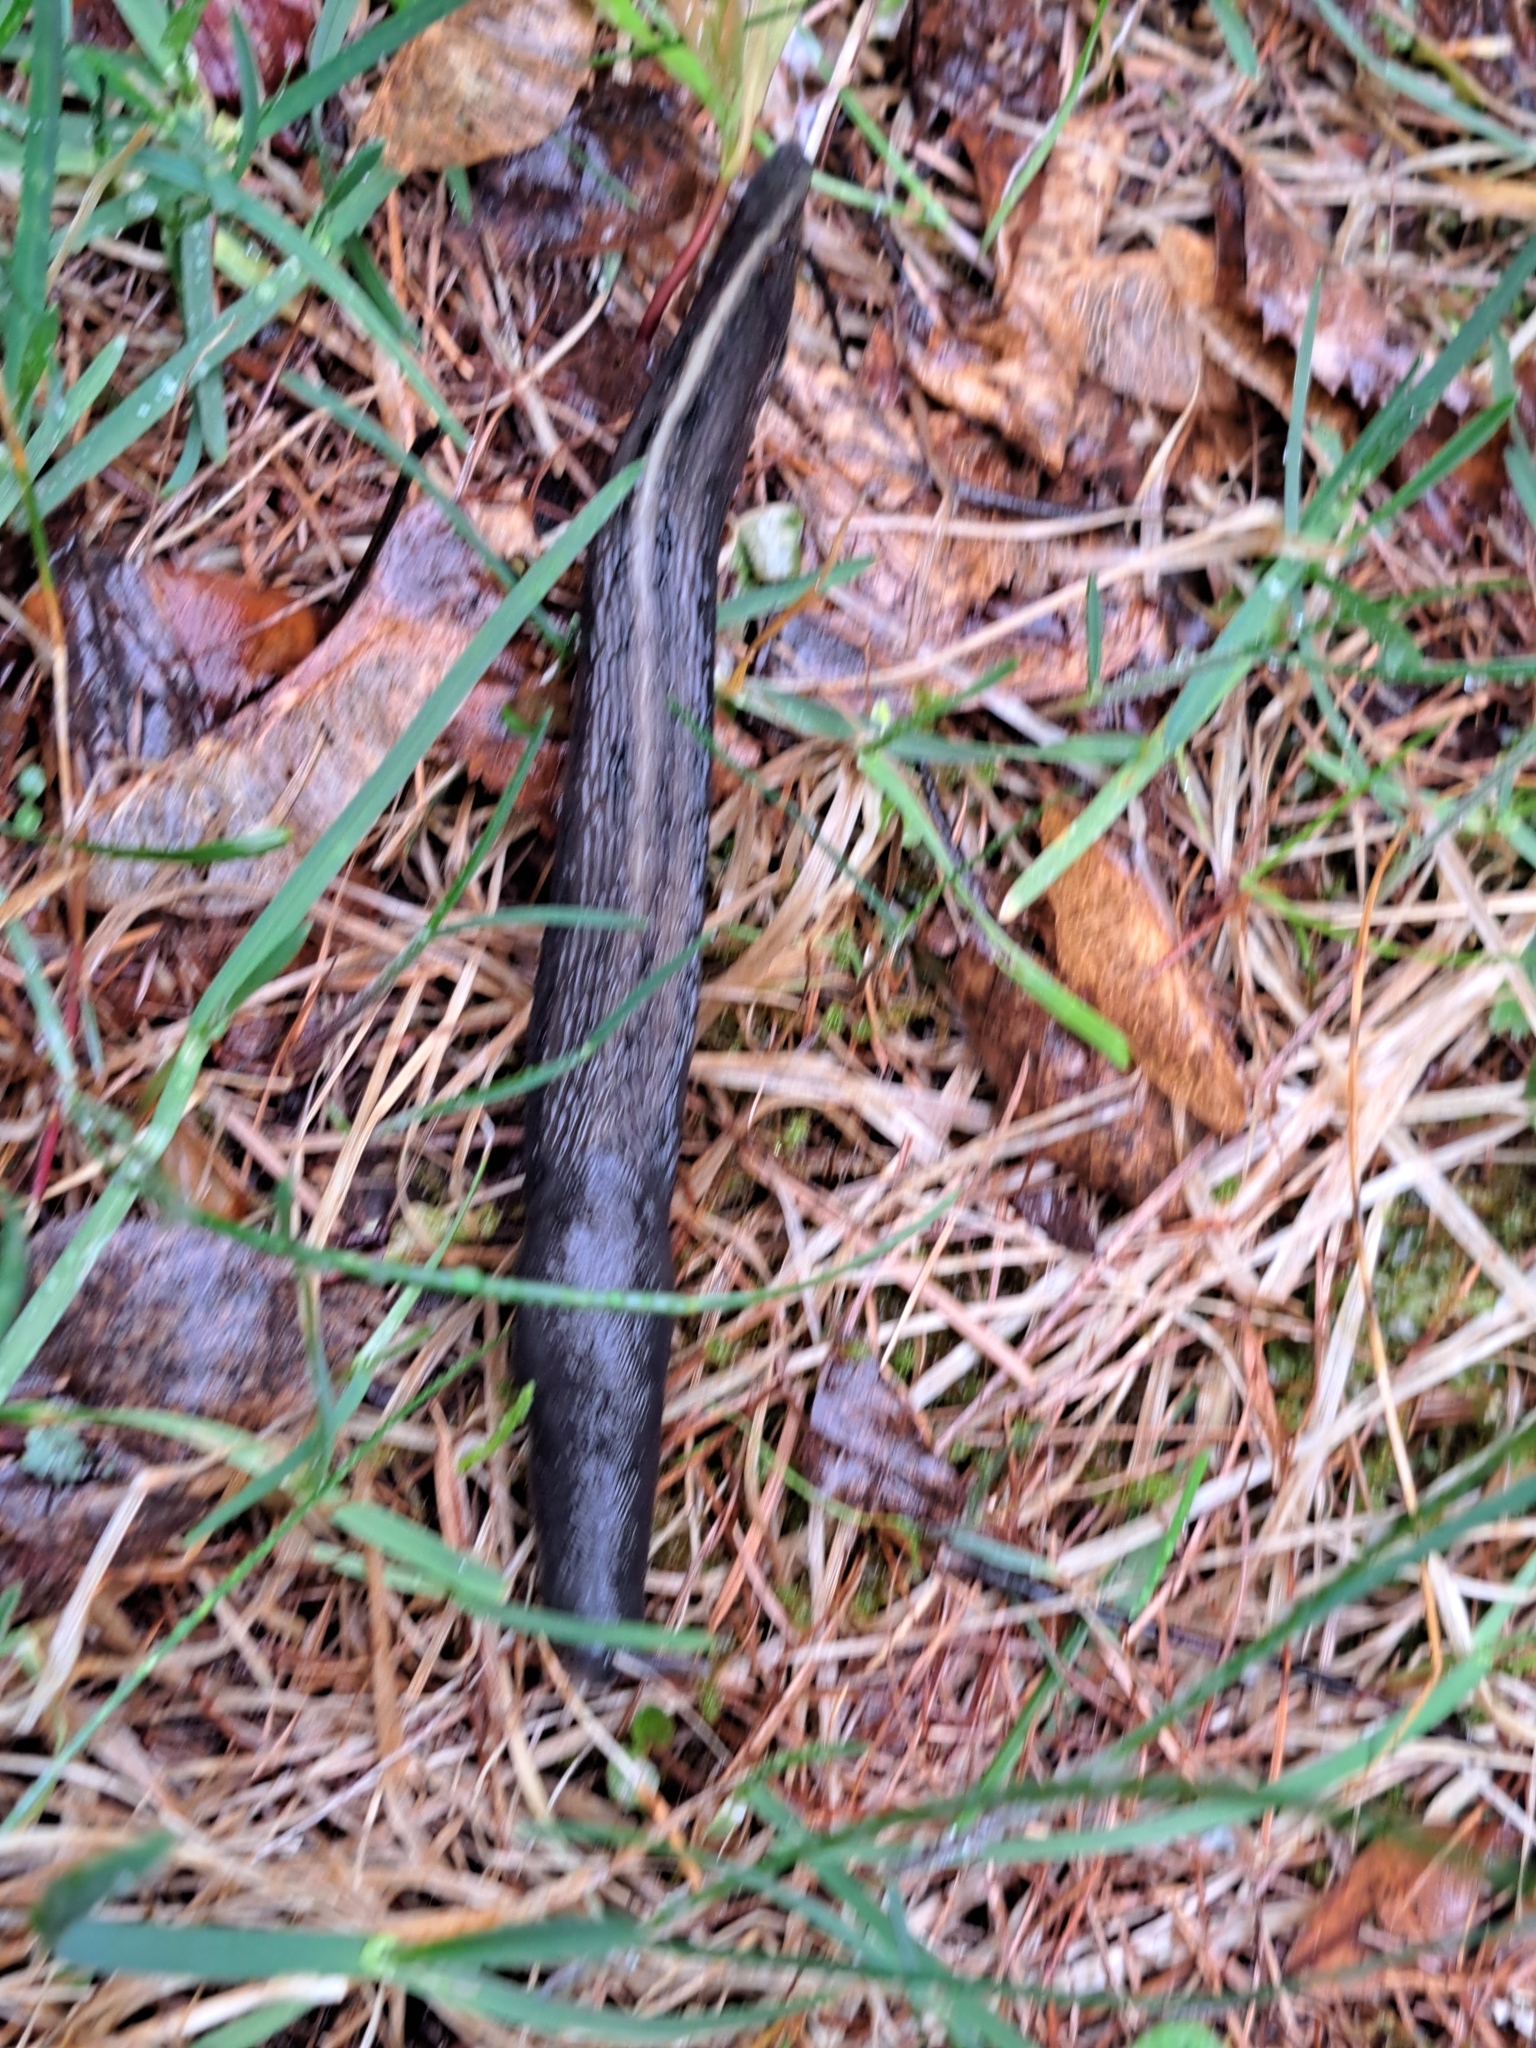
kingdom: Animalia
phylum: Mollusca
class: Gastropoda
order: Stylommatophora
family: Limacidae
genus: Limax
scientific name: Limax cinereoniger
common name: Ash-black slug
